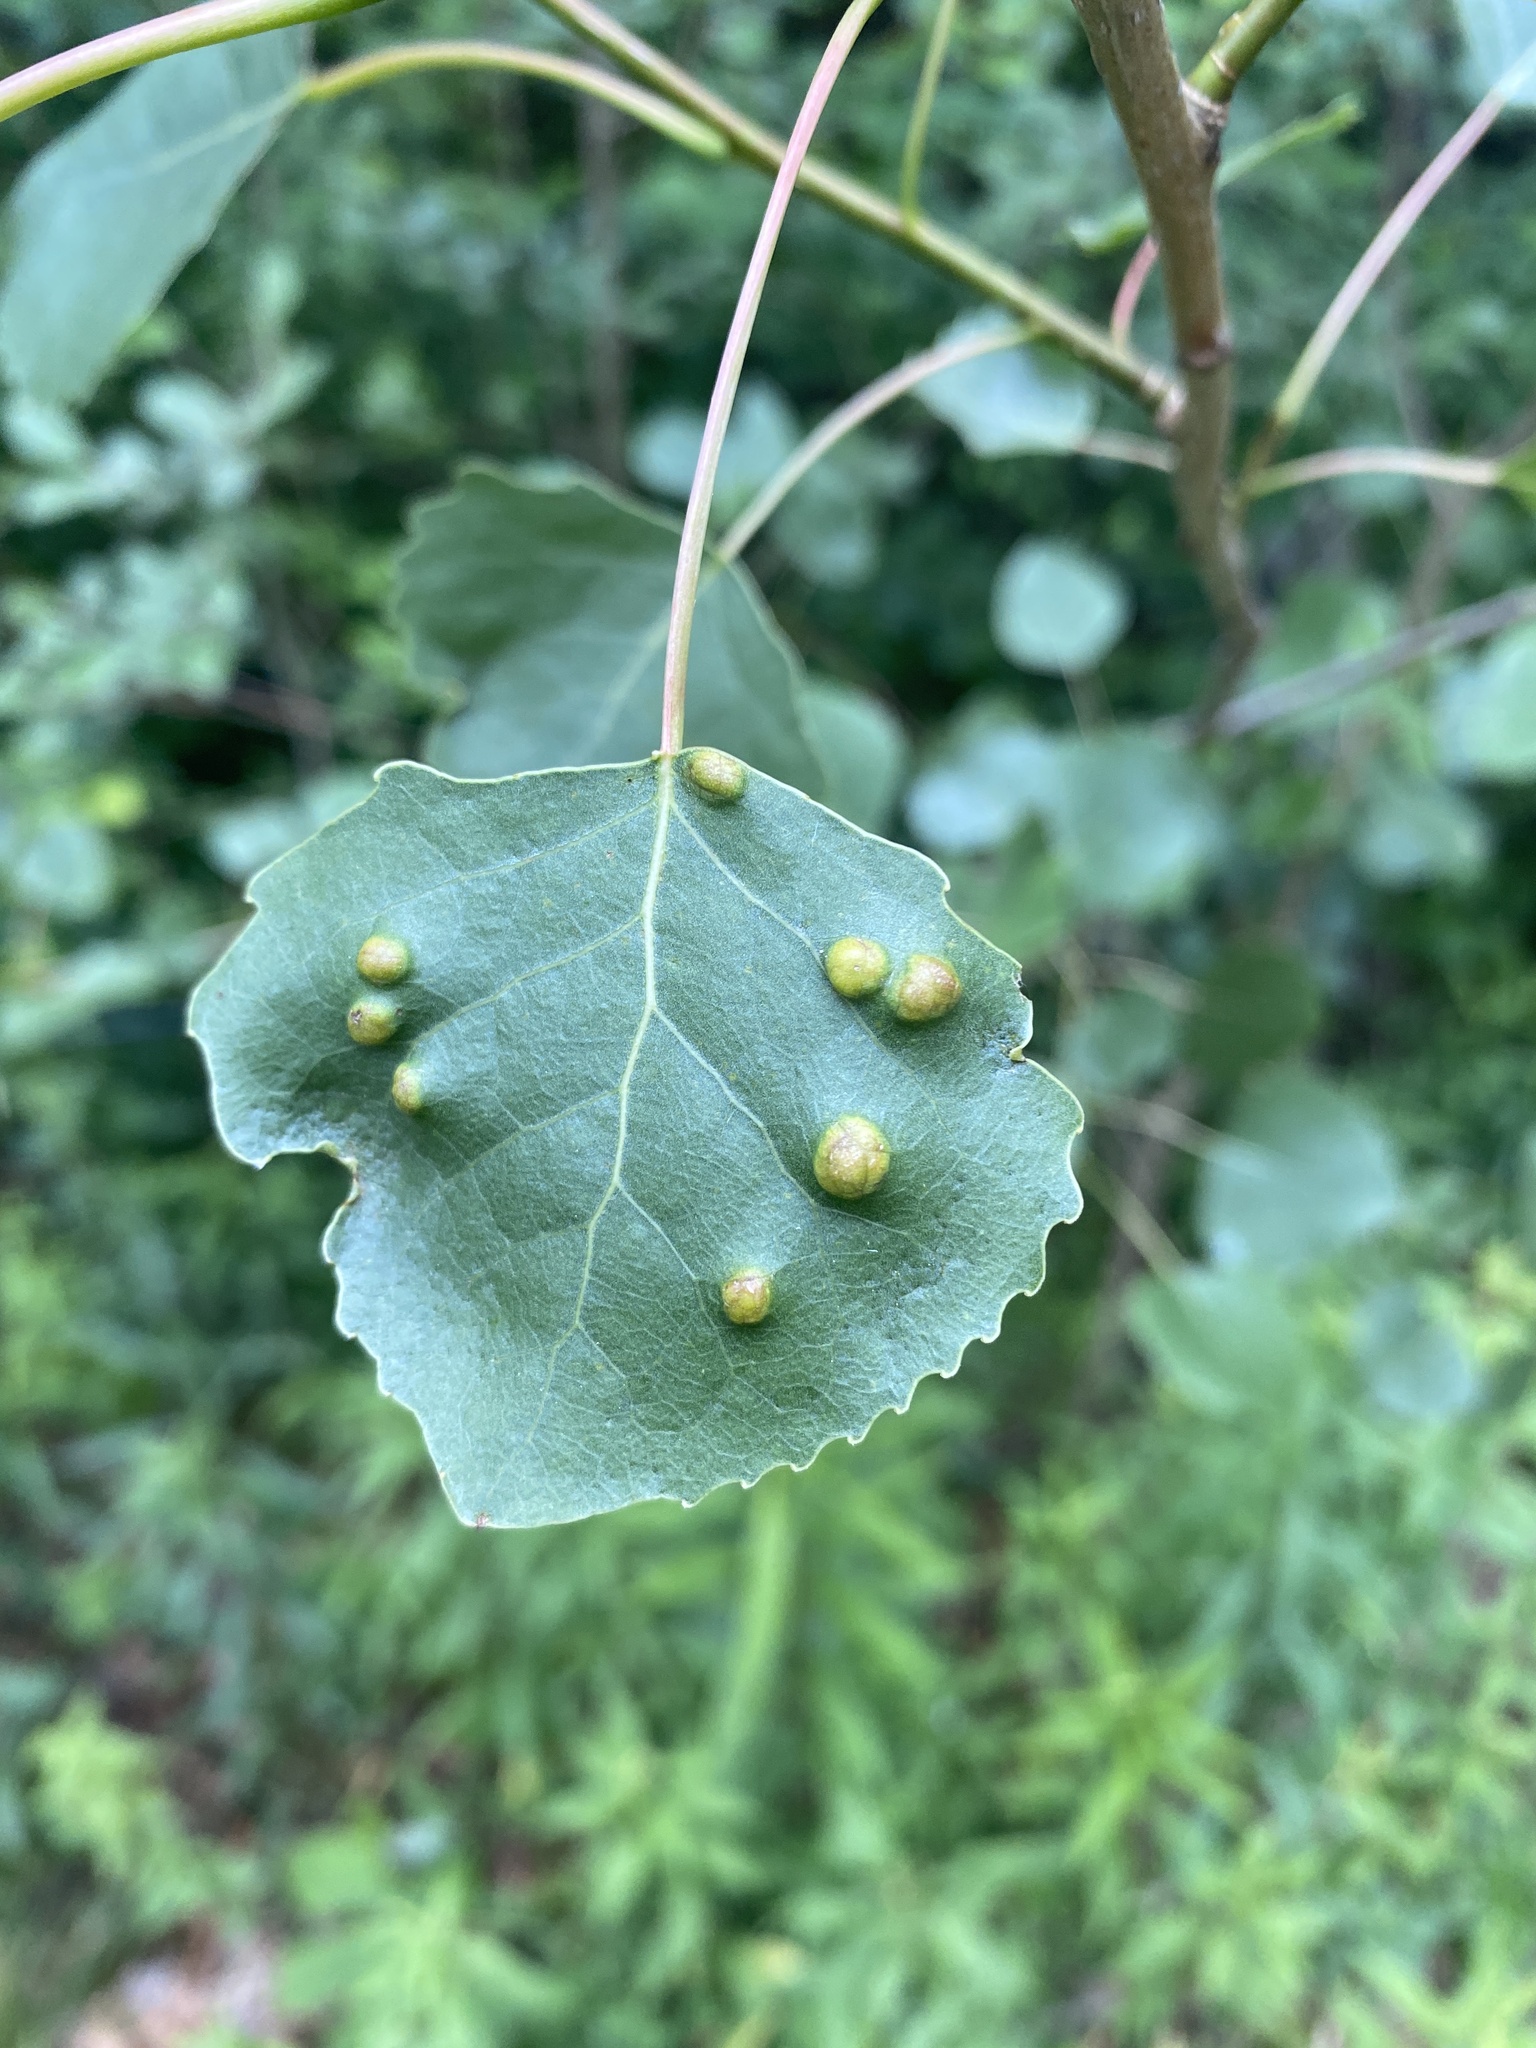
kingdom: Animalia
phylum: Arthropoda
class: Arachnida
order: Trombidiformes
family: Eriophyidae
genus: Phyllocoptes
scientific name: Phyllocoptes
